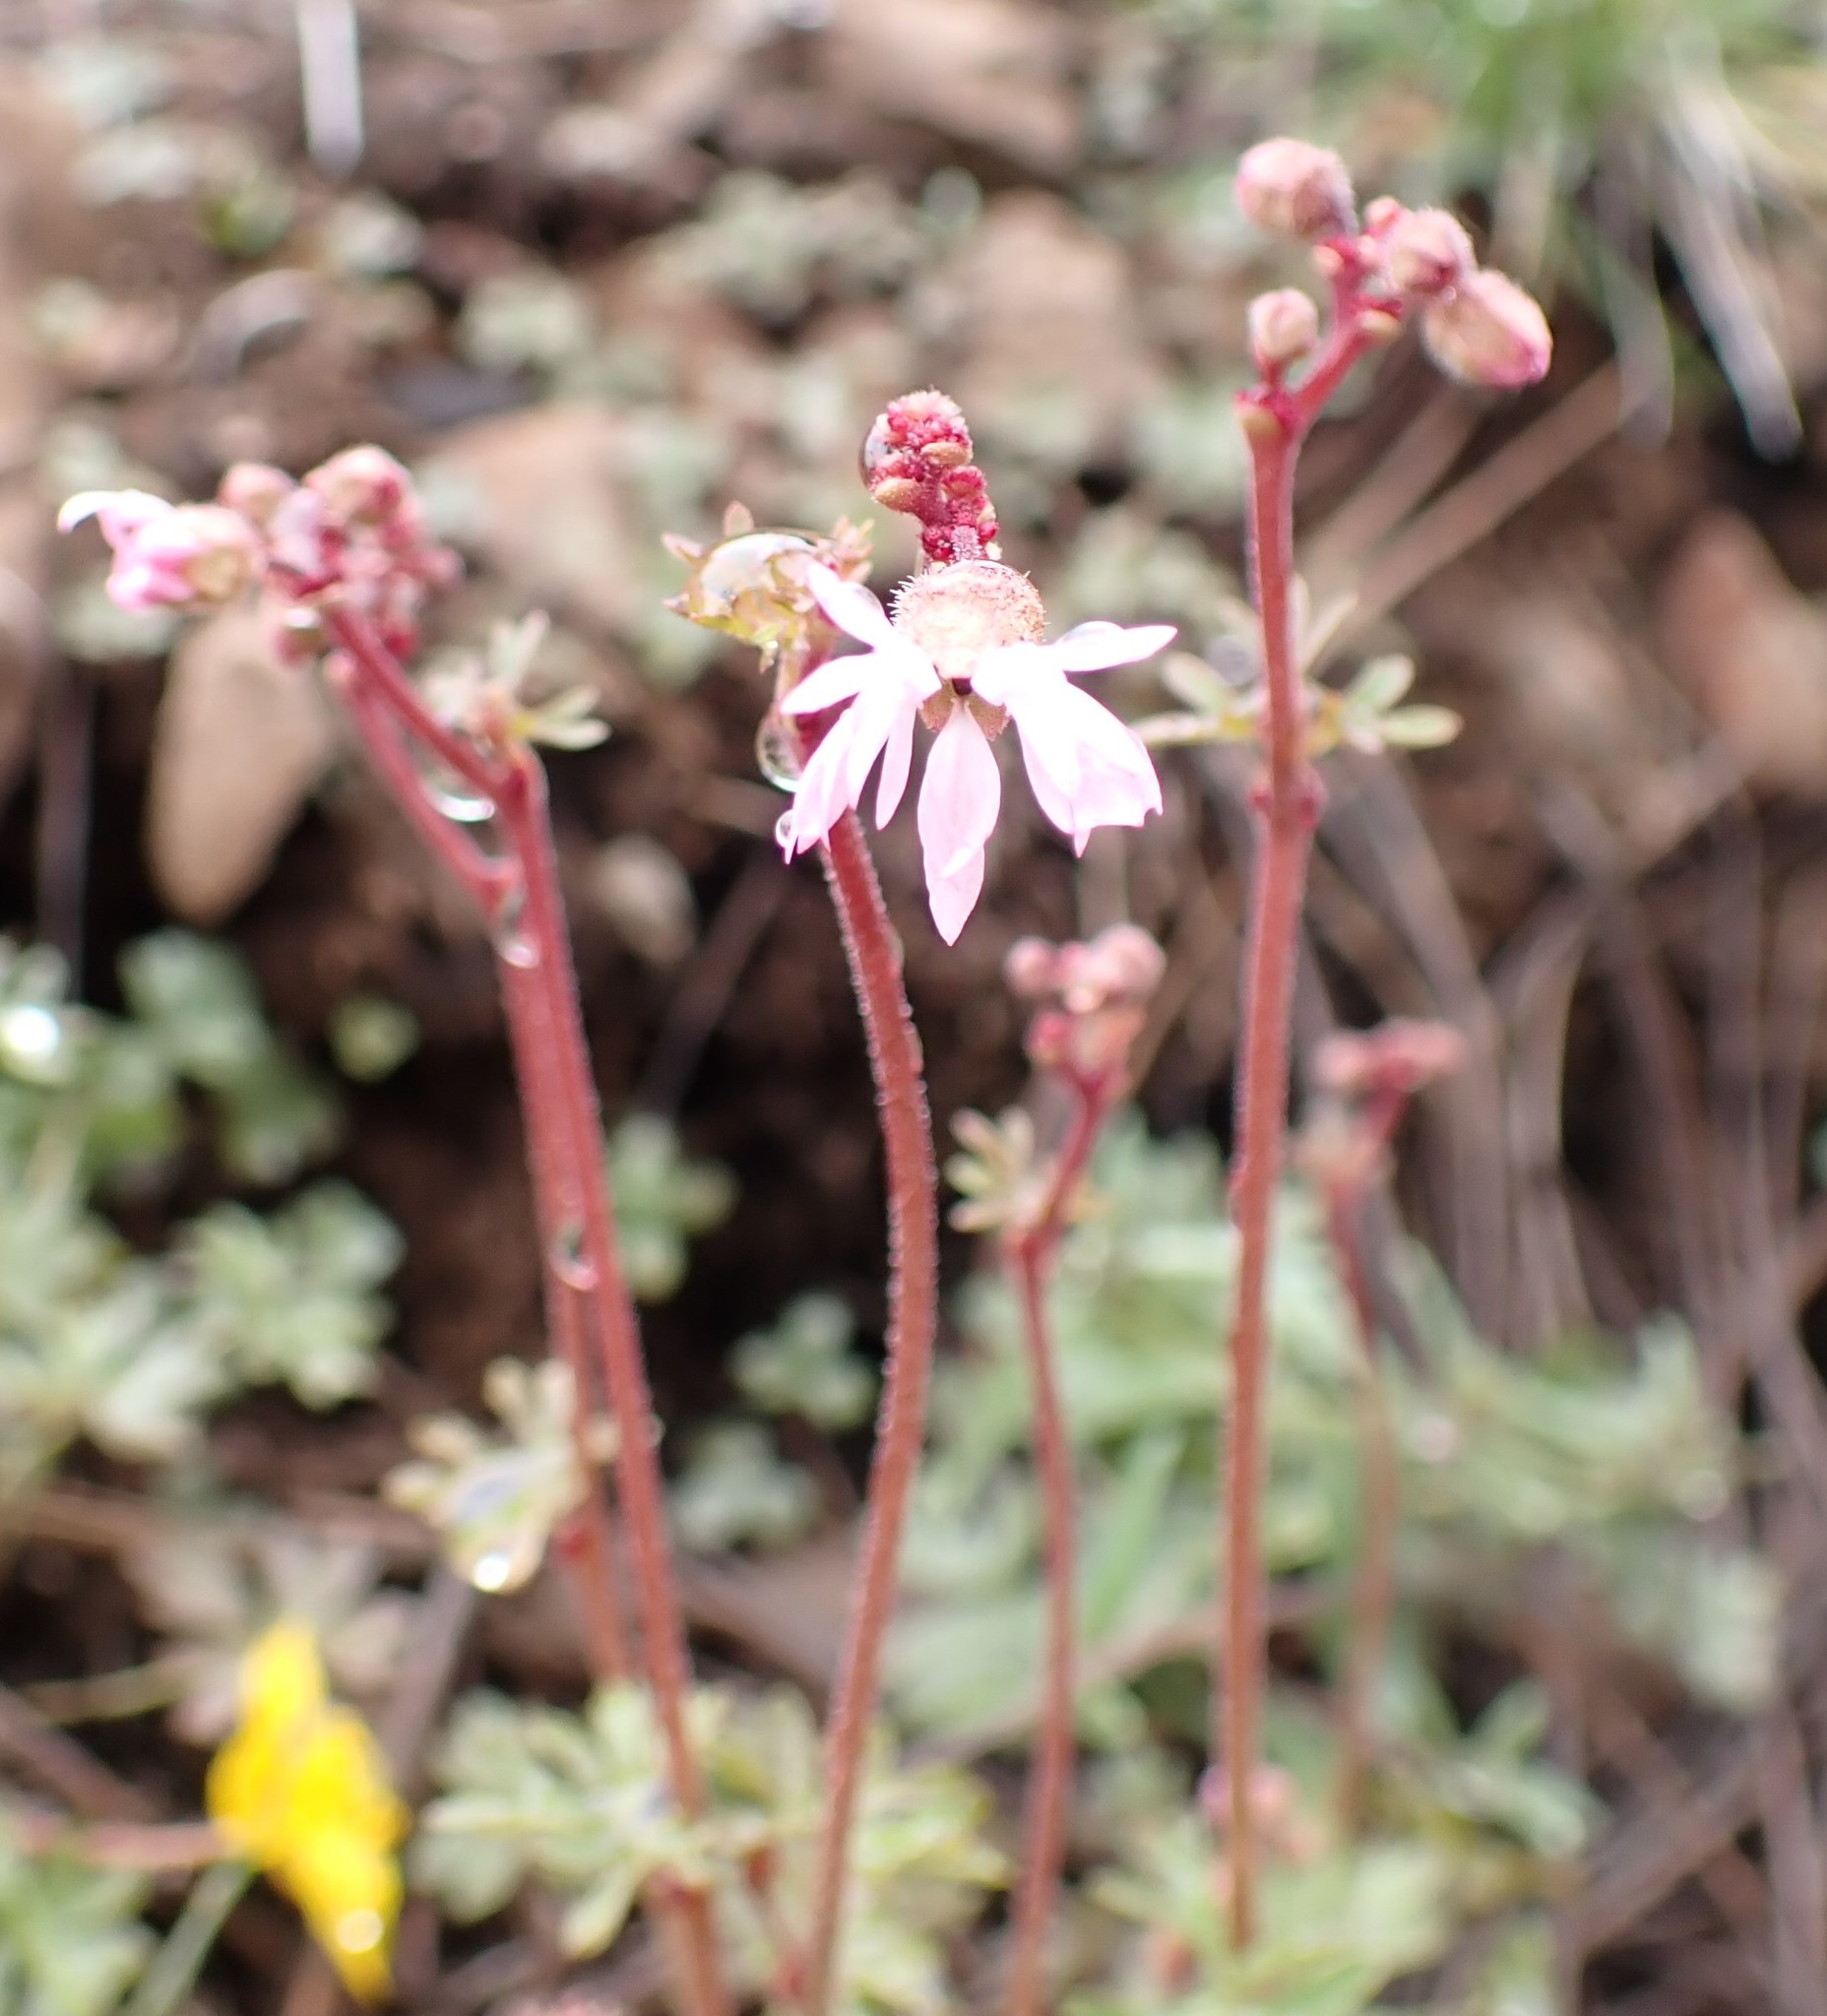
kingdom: Plantae
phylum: Tracheophyta
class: Magnoliopsida
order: Saxifragales
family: Saxifragaceae
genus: Lithophragma
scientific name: Lithophragma glabrum
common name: Bulbous prairie-star
